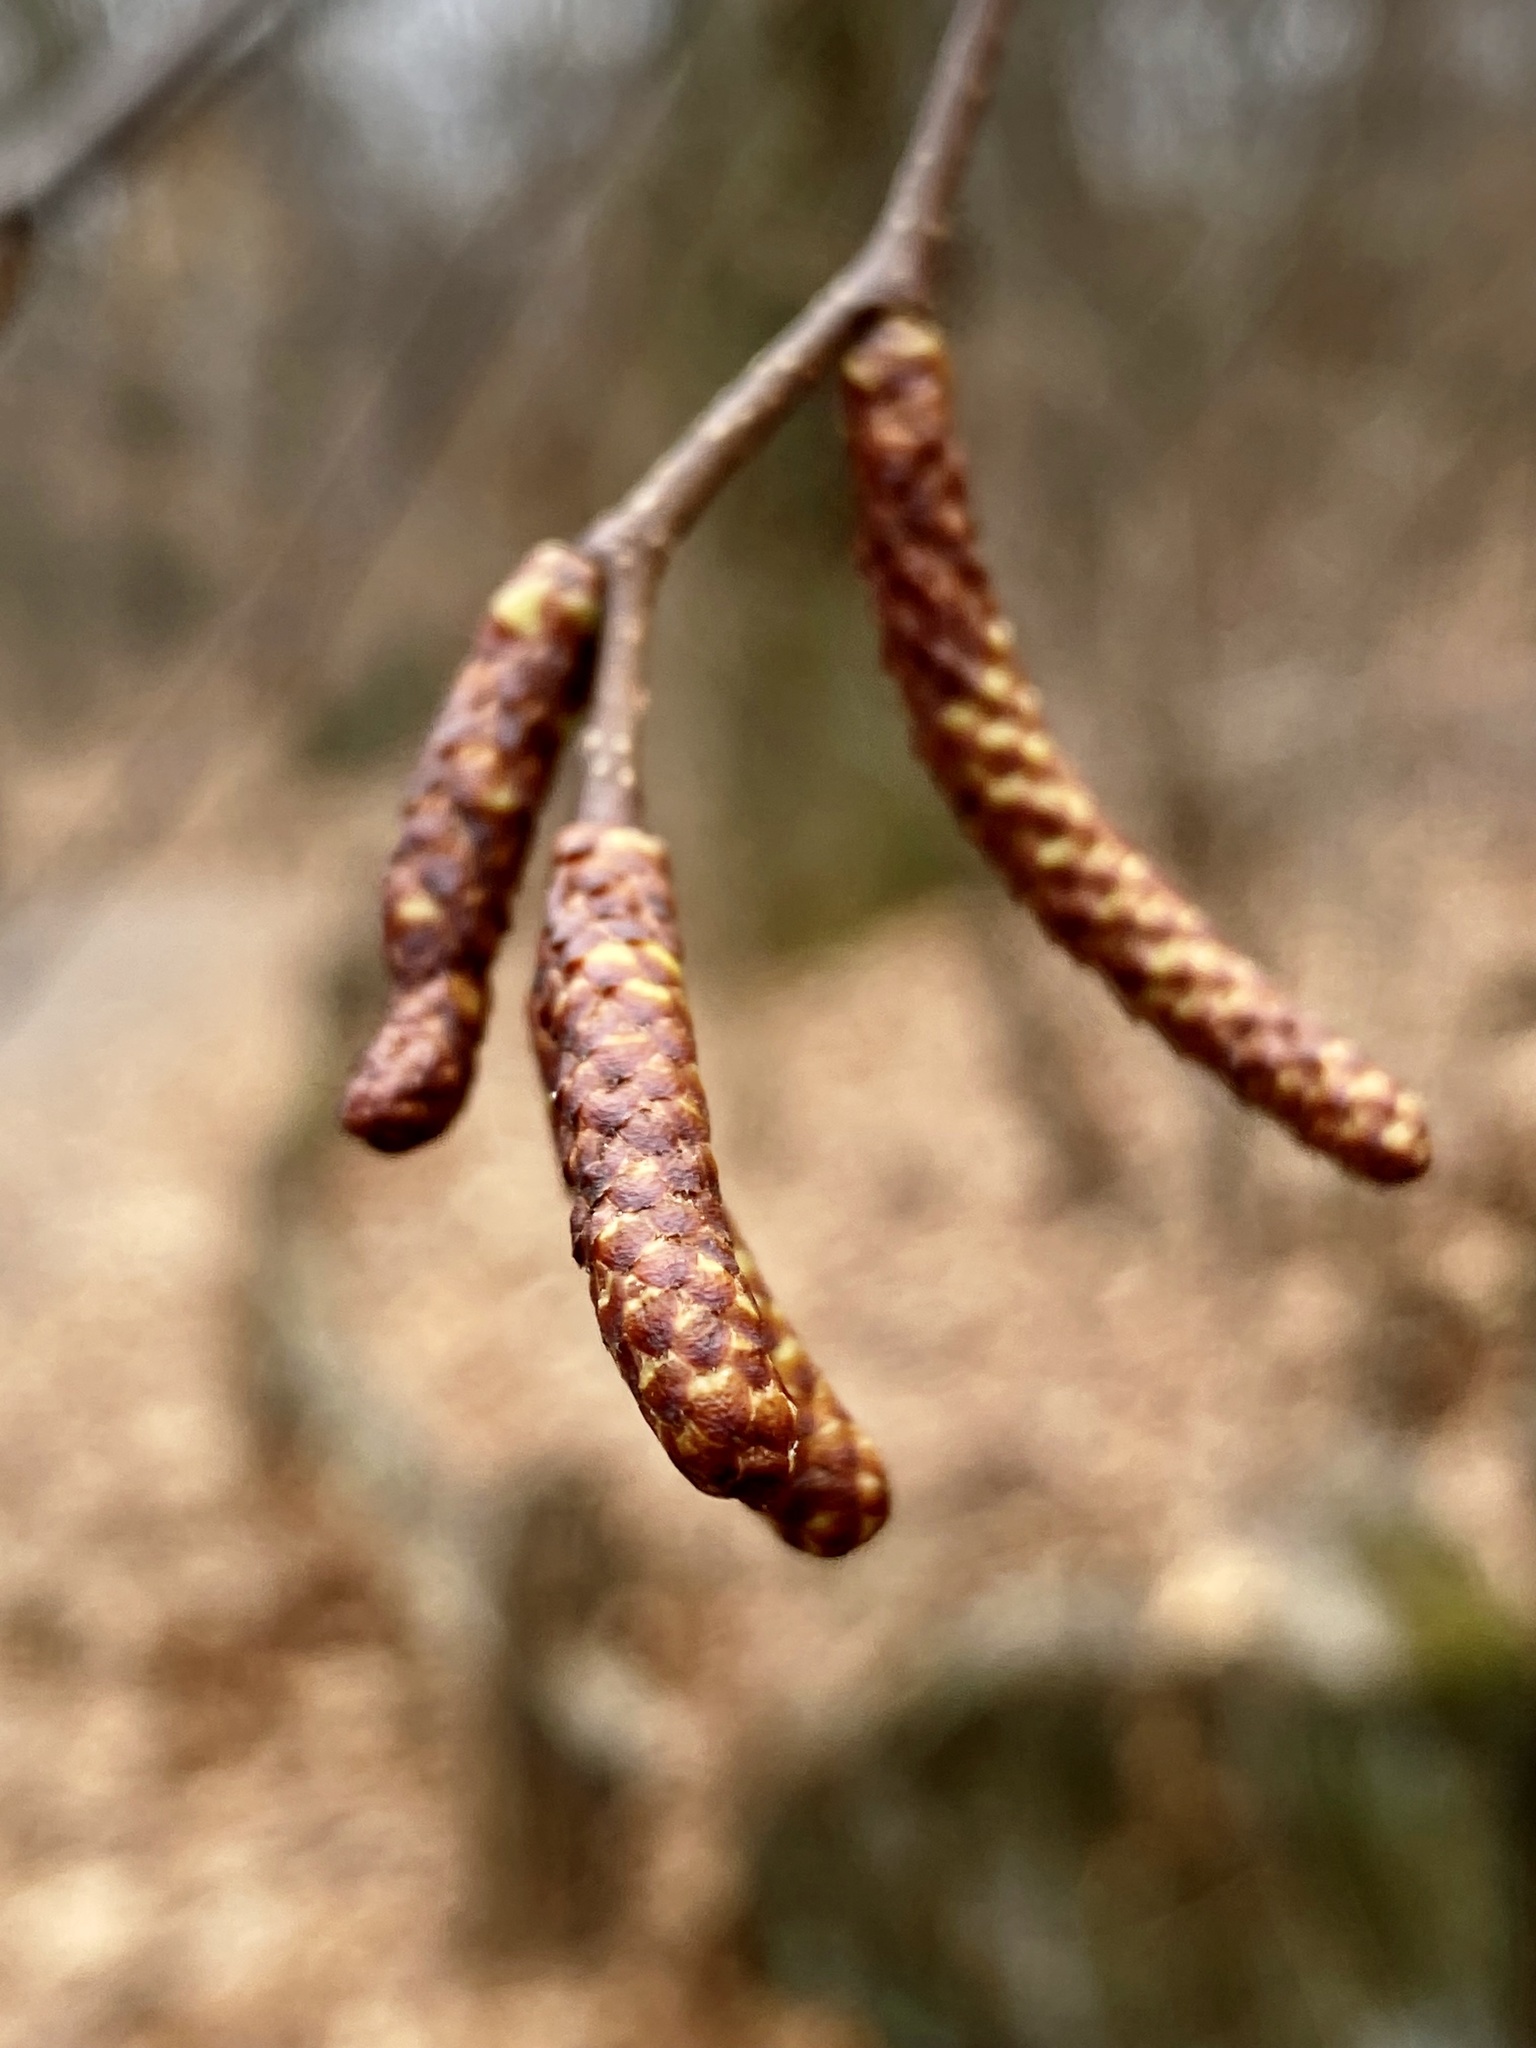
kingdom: Plantae
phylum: Tracheophyta
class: Magnoliopsida
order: Fagales
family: Betulaceae
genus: Betula
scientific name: Betula lenta
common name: Black birch
